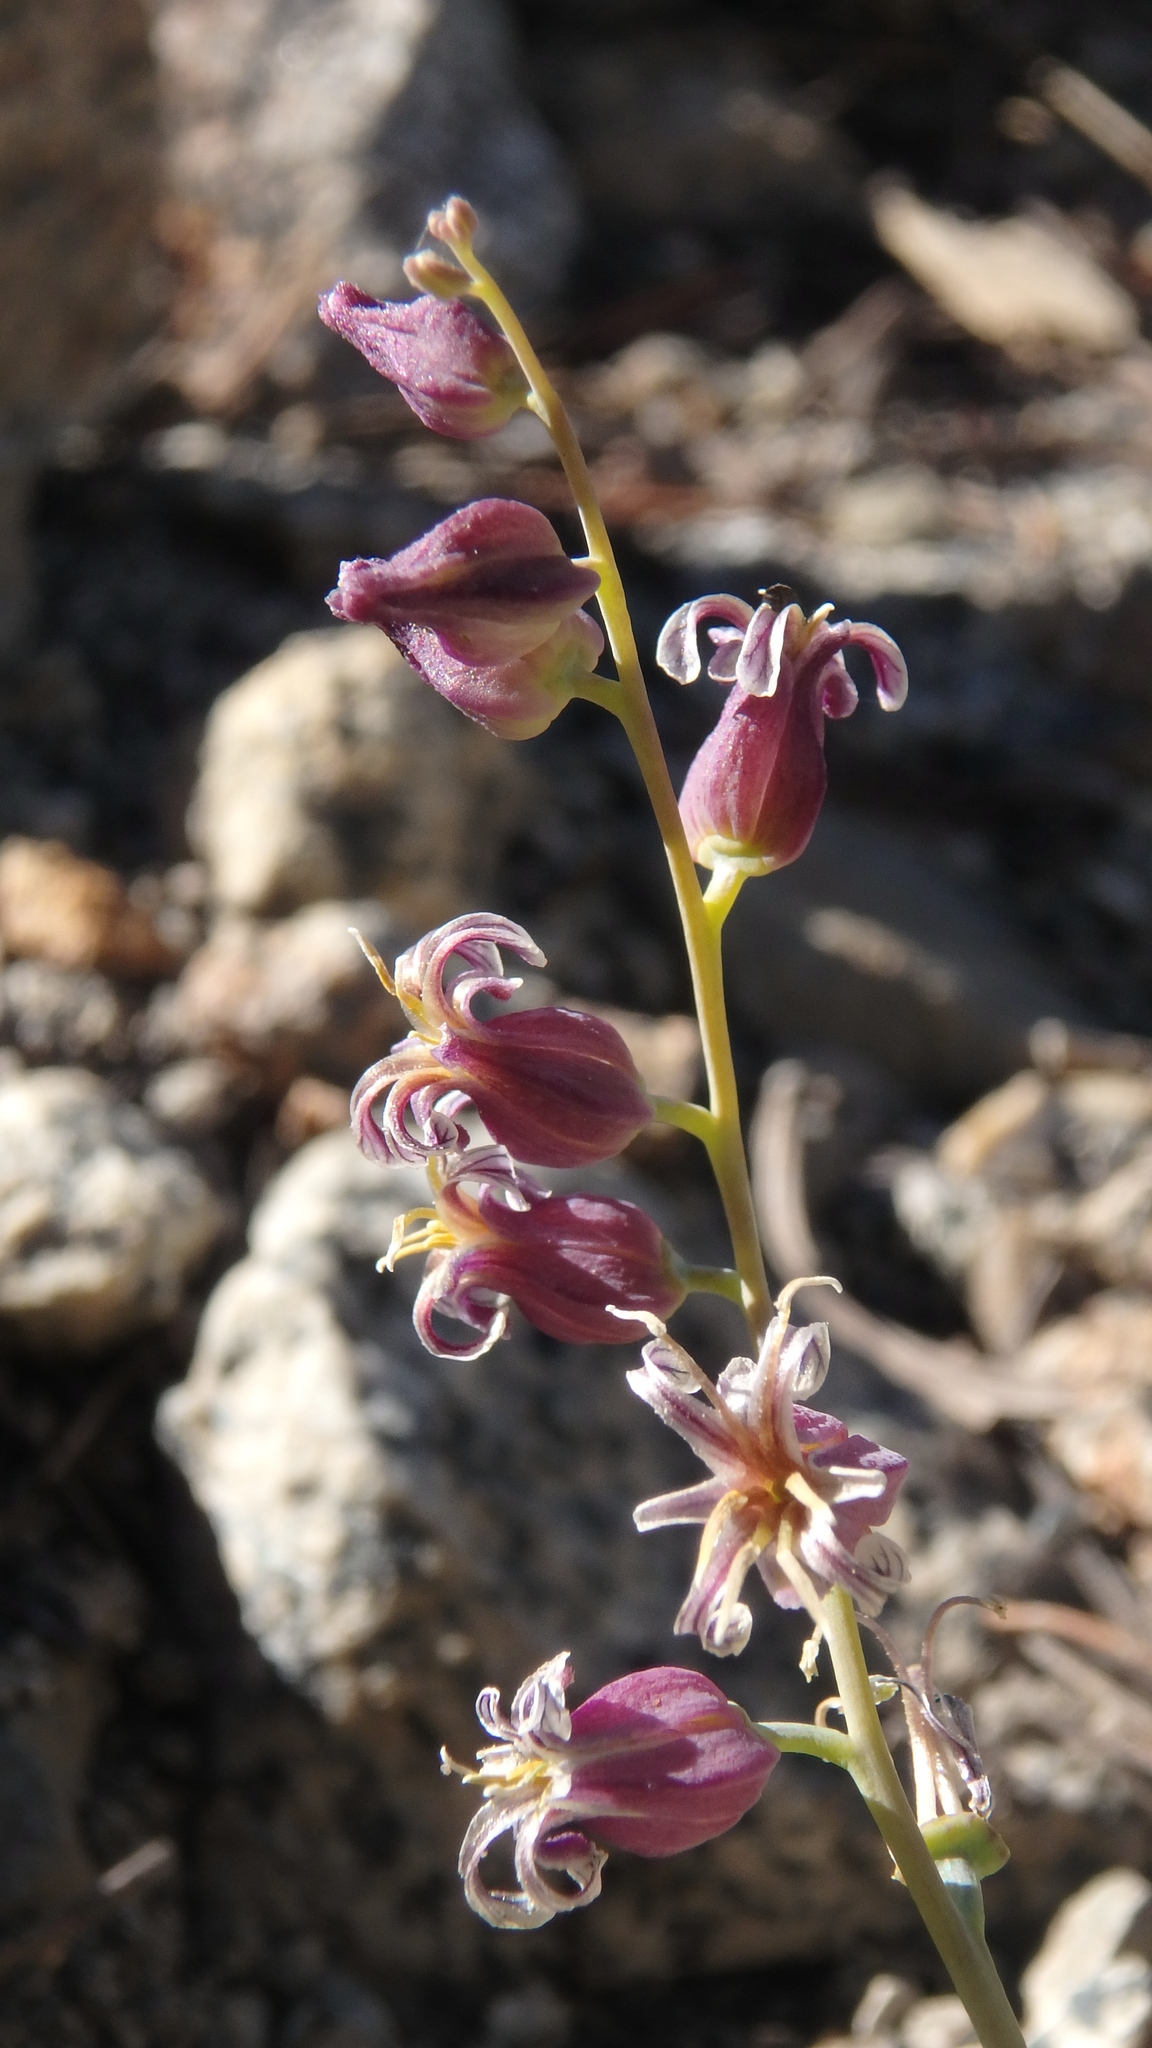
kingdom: Plantae
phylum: Tracheophyta
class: Magnoliopsida
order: Brassicales
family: Brassicaceae
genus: Streptanthus
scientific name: Streptanthus tortuosus
